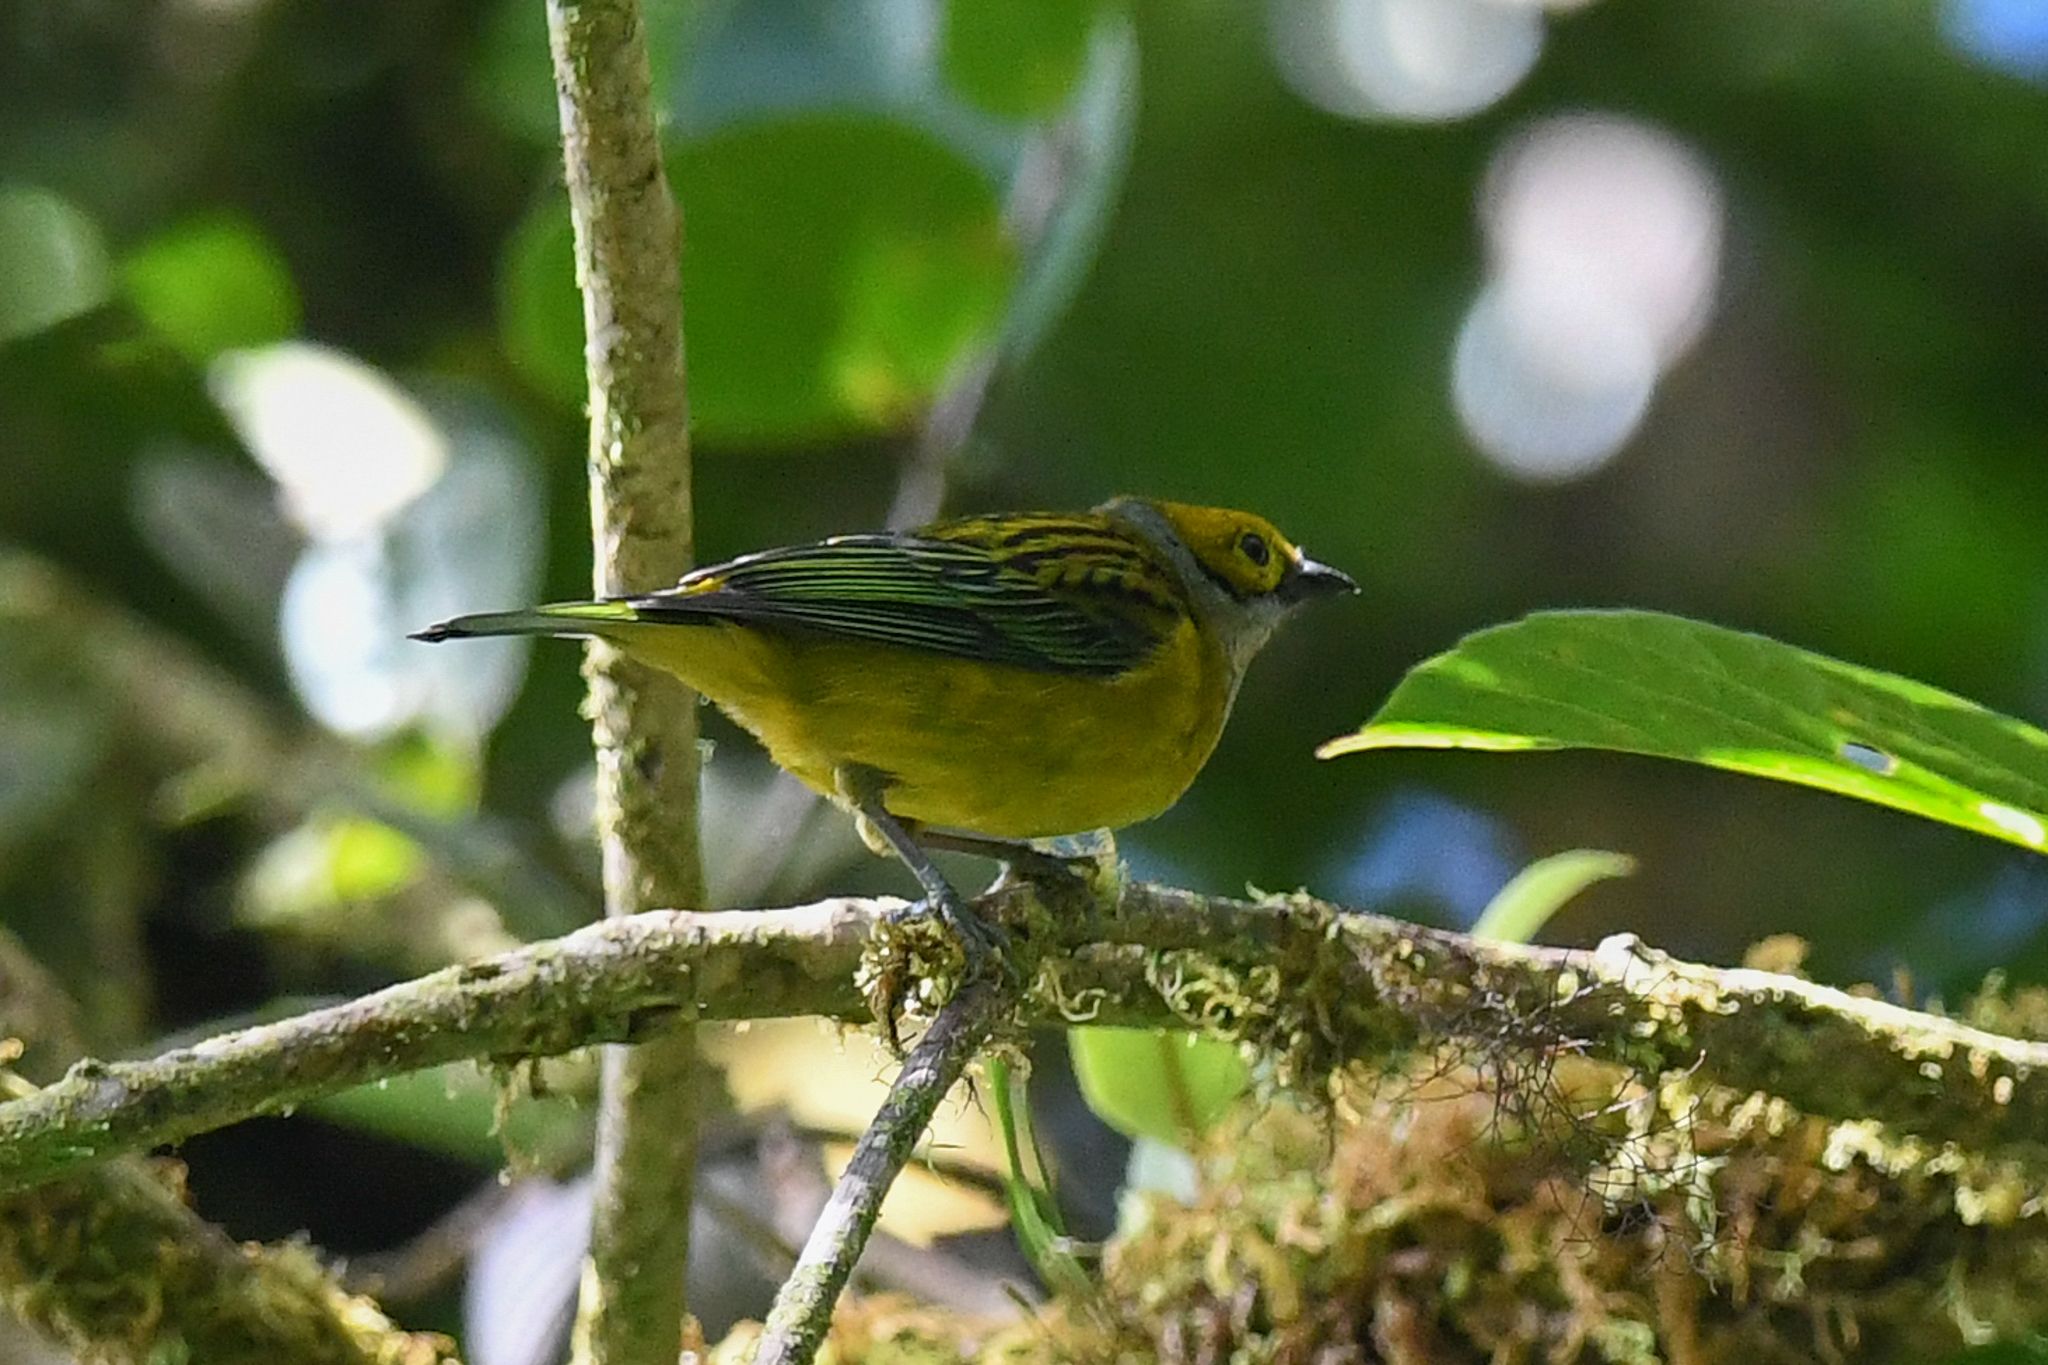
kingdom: Animalia
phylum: Chordata
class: Aves
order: Passeriformes
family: Thraupidae
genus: Tangara
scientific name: Tangara icterocephala
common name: Silver-throated tanager
